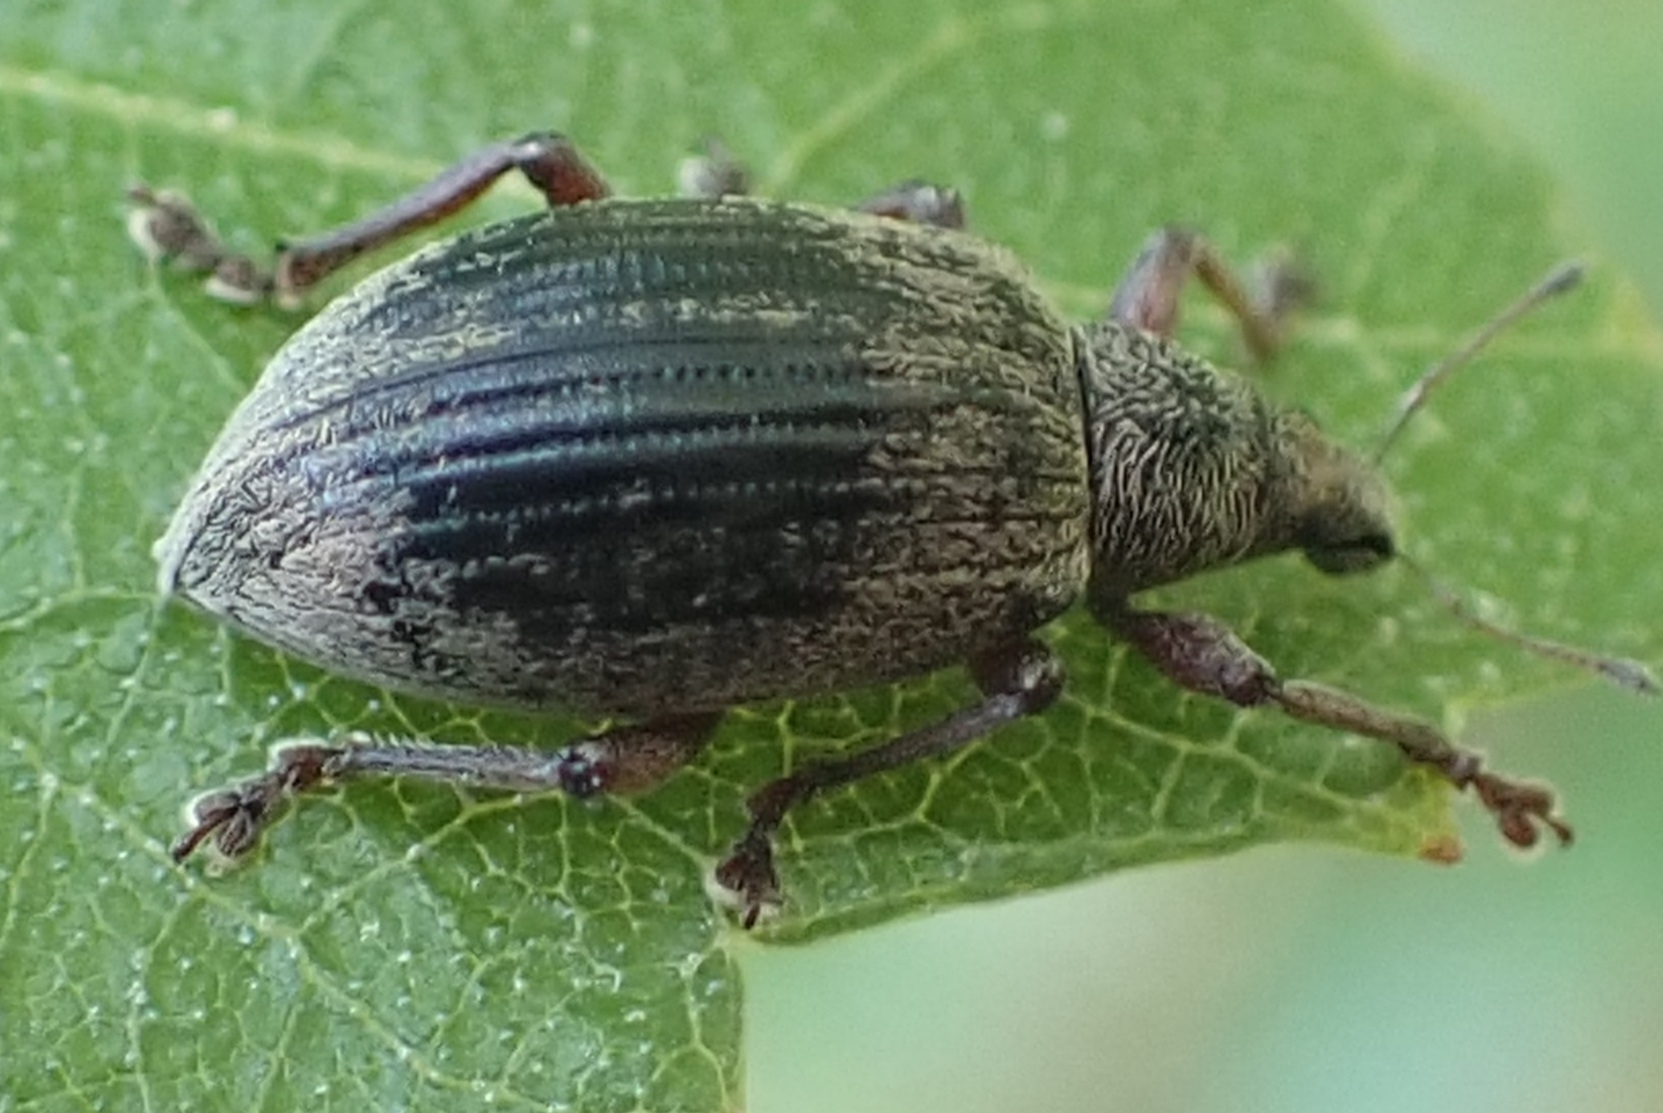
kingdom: Animalia
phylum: Arthropoda
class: Insecta
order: Coleoptera
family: Curculionidae
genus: Polydrusus
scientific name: Polydrusus mollis
